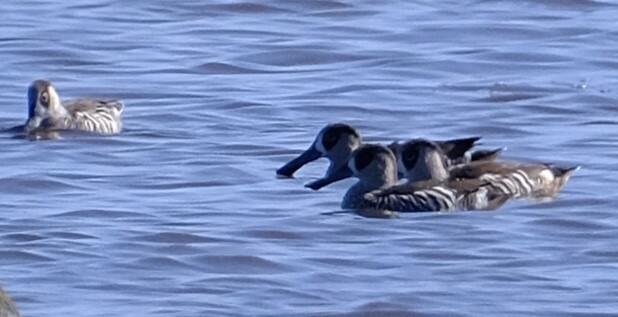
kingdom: Animalia
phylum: Chordata
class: Aves
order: Anseriformes
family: Anatidae
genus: Malacorhynchus
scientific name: Malacorhynchus membranaceus
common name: Pink-eared duck
